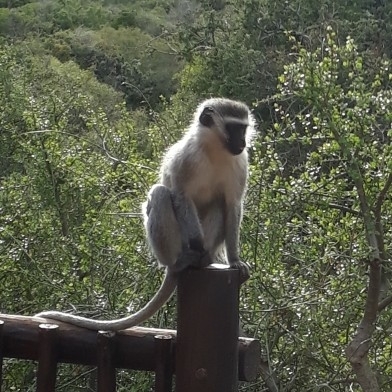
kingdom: Animalia
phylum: Chordata
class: Mammalia
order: Primates
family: Cercopithecidae
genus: Chlorocebus
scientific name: Chlorocebus pygerythrus
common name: Vervet monkey
